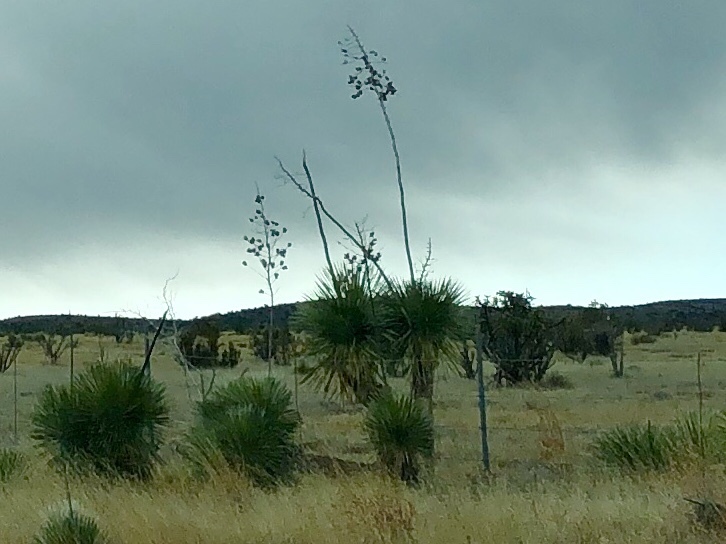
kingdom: Plantae
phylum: Tracheophyta
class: Liliopsida
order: Asparagales
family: Asparagaceae
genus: Yucca
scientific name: Yucca elata
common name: Palmella
